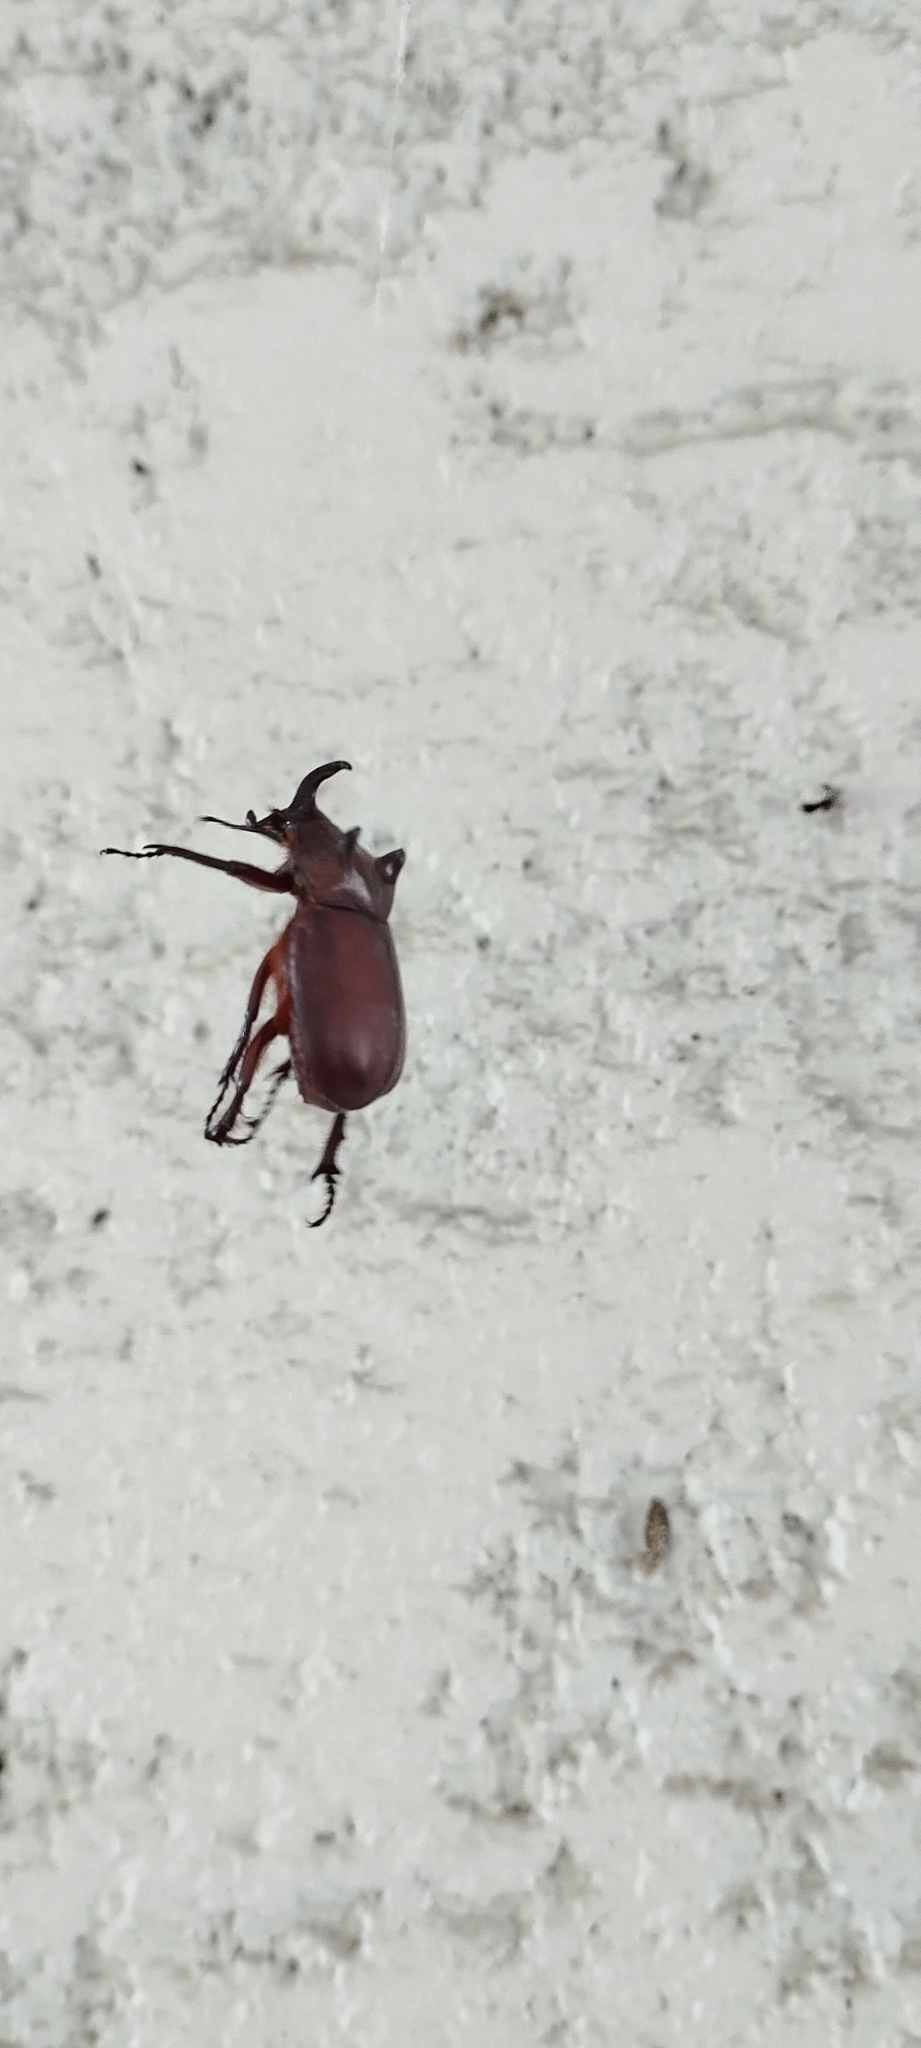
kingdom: Animalia
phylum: Arthropoda
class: Insecta
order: Coleoptera
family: Scarabaeidae
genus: Coelosis
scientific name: Coelosis bicornis
